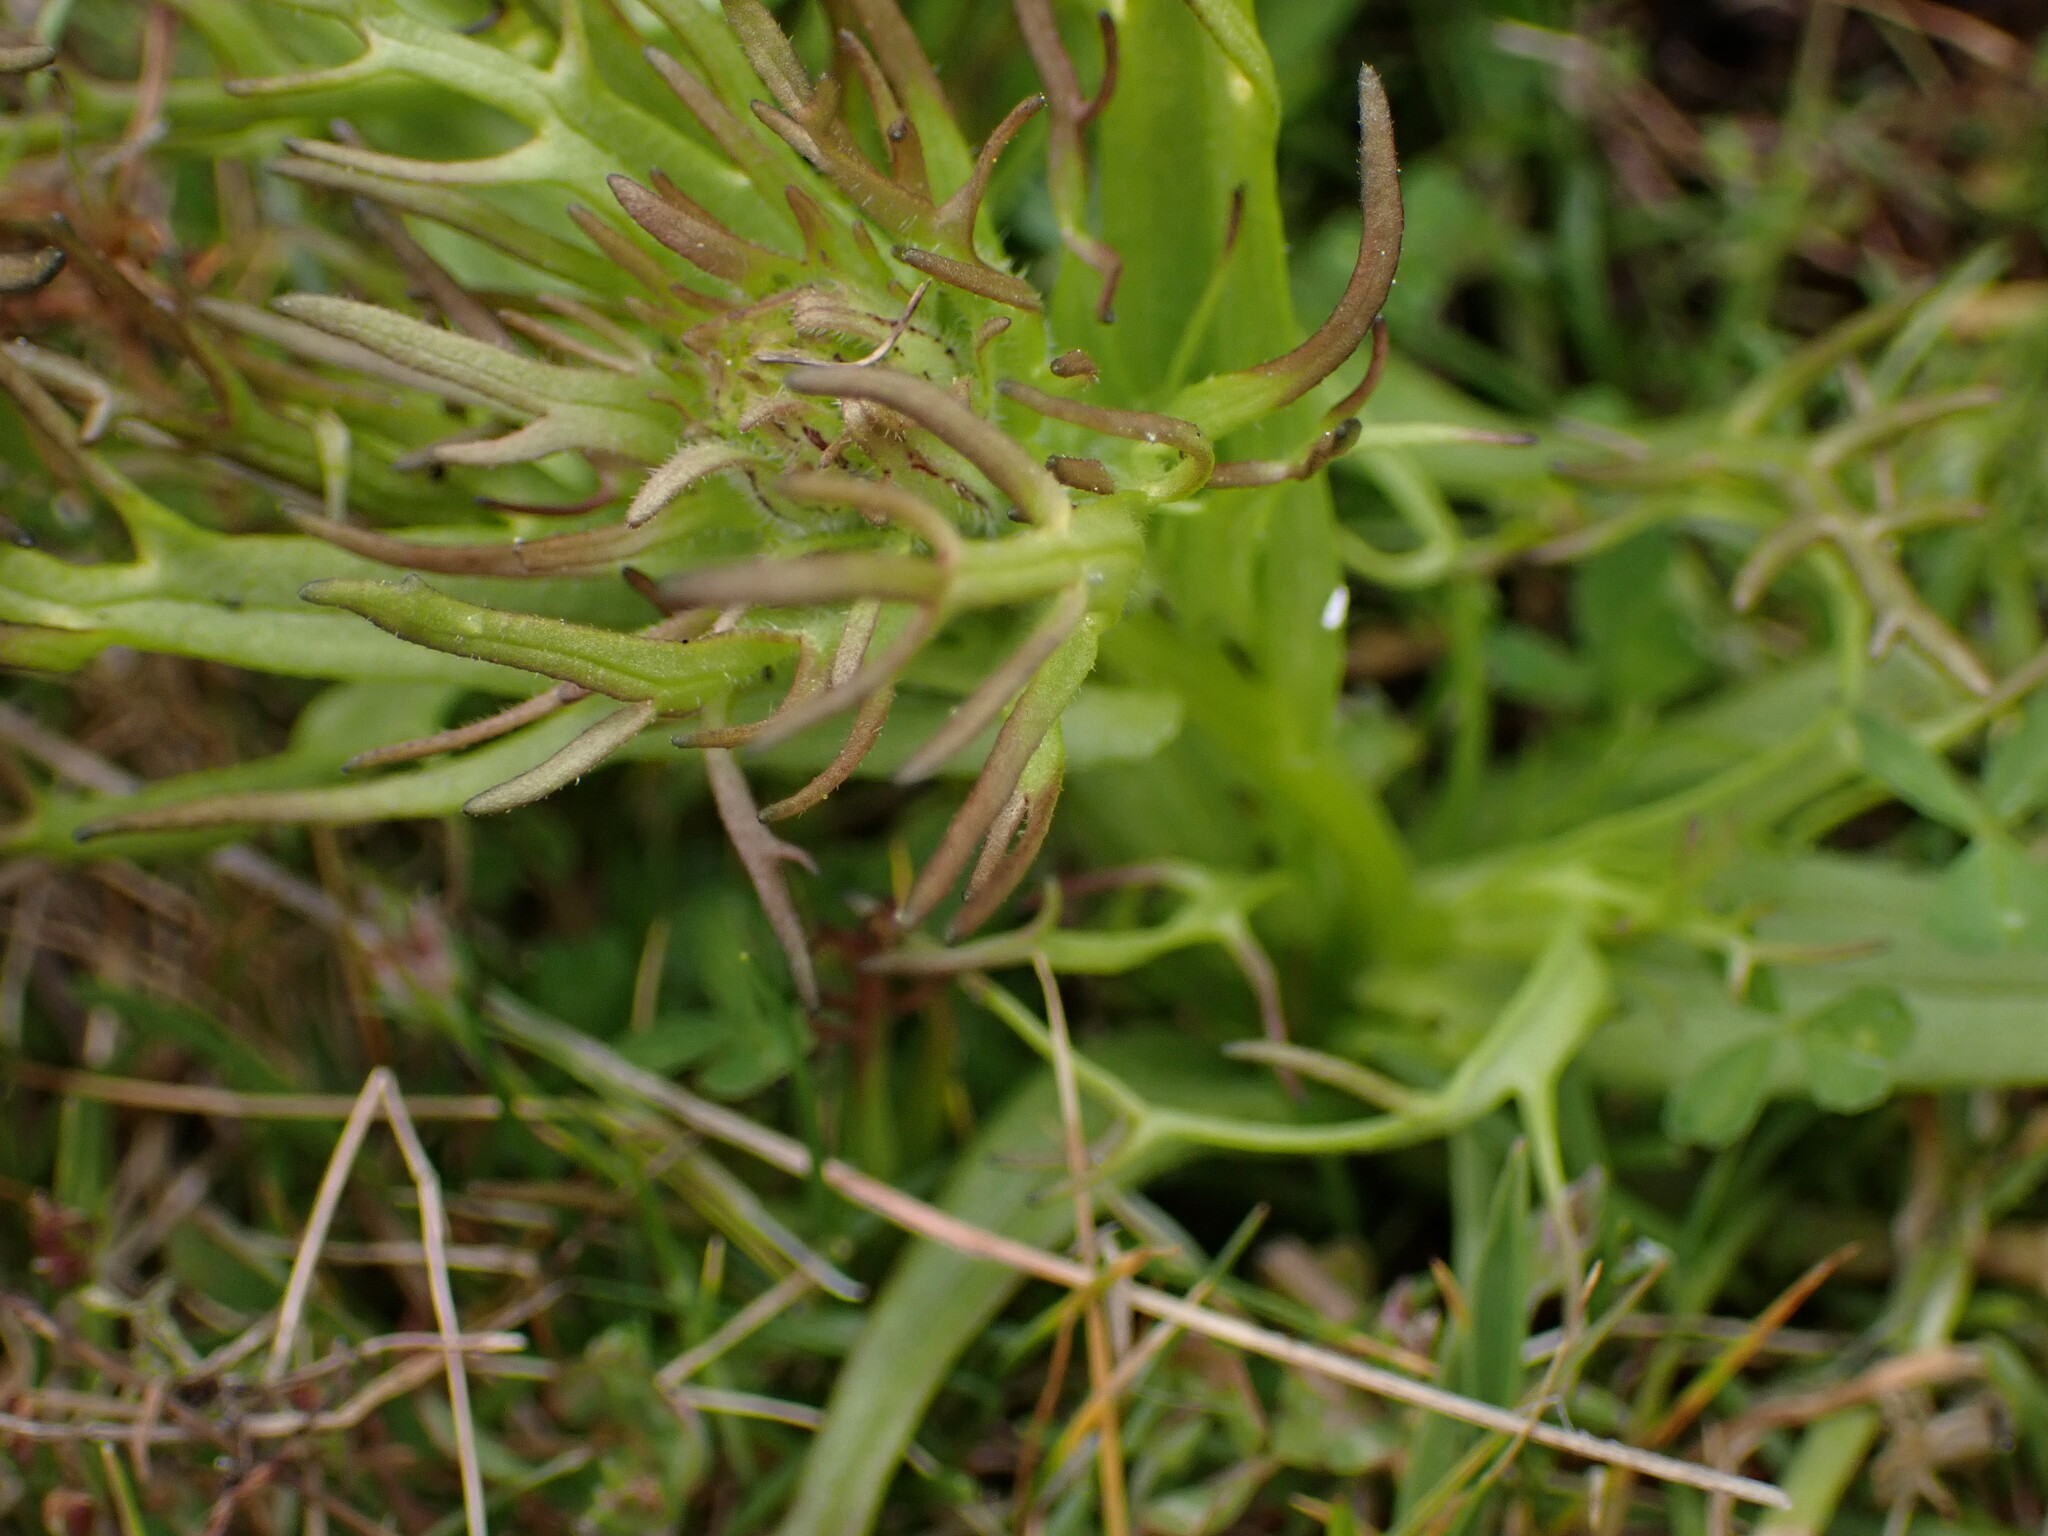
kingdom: Plantae
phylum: Tracheophyta
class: Magnoliopsida
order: Lamiales
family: Orobanchaceae
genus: Triphysaria
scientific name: Triphysaria versicolor
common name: Bearded false owl-clover
